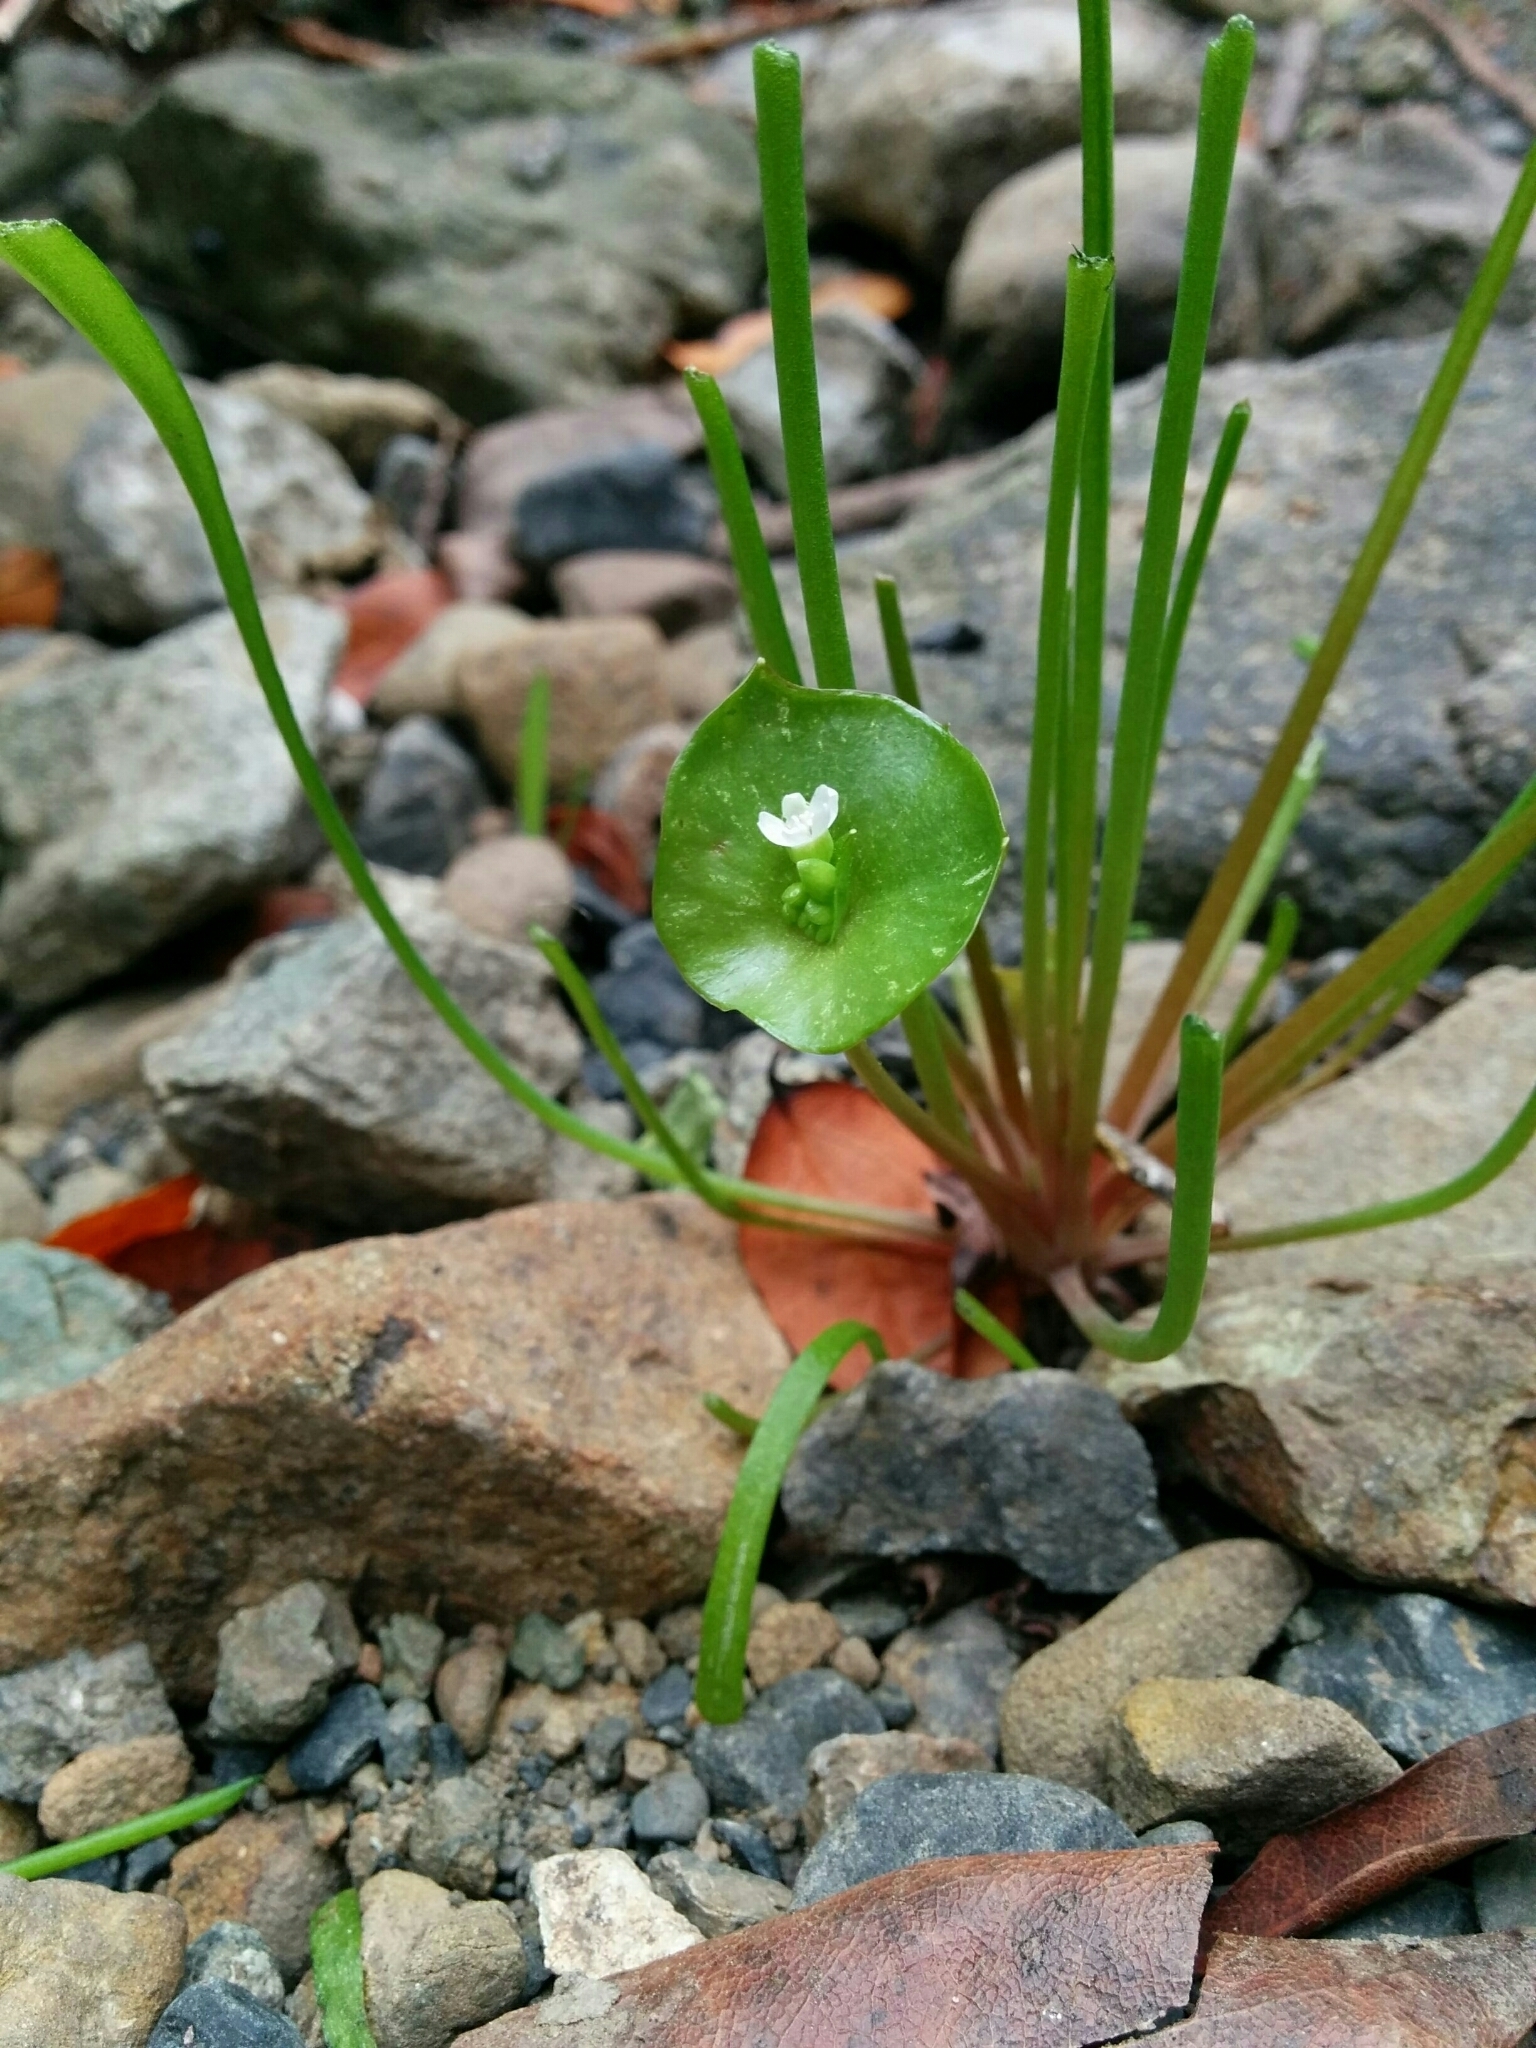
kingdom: Plantae
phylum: Tracheophyta
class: Magnoliopsida
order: Caryophyllales
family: Montiaceae
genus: Claytonia
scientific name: Claytonia perfoliata
